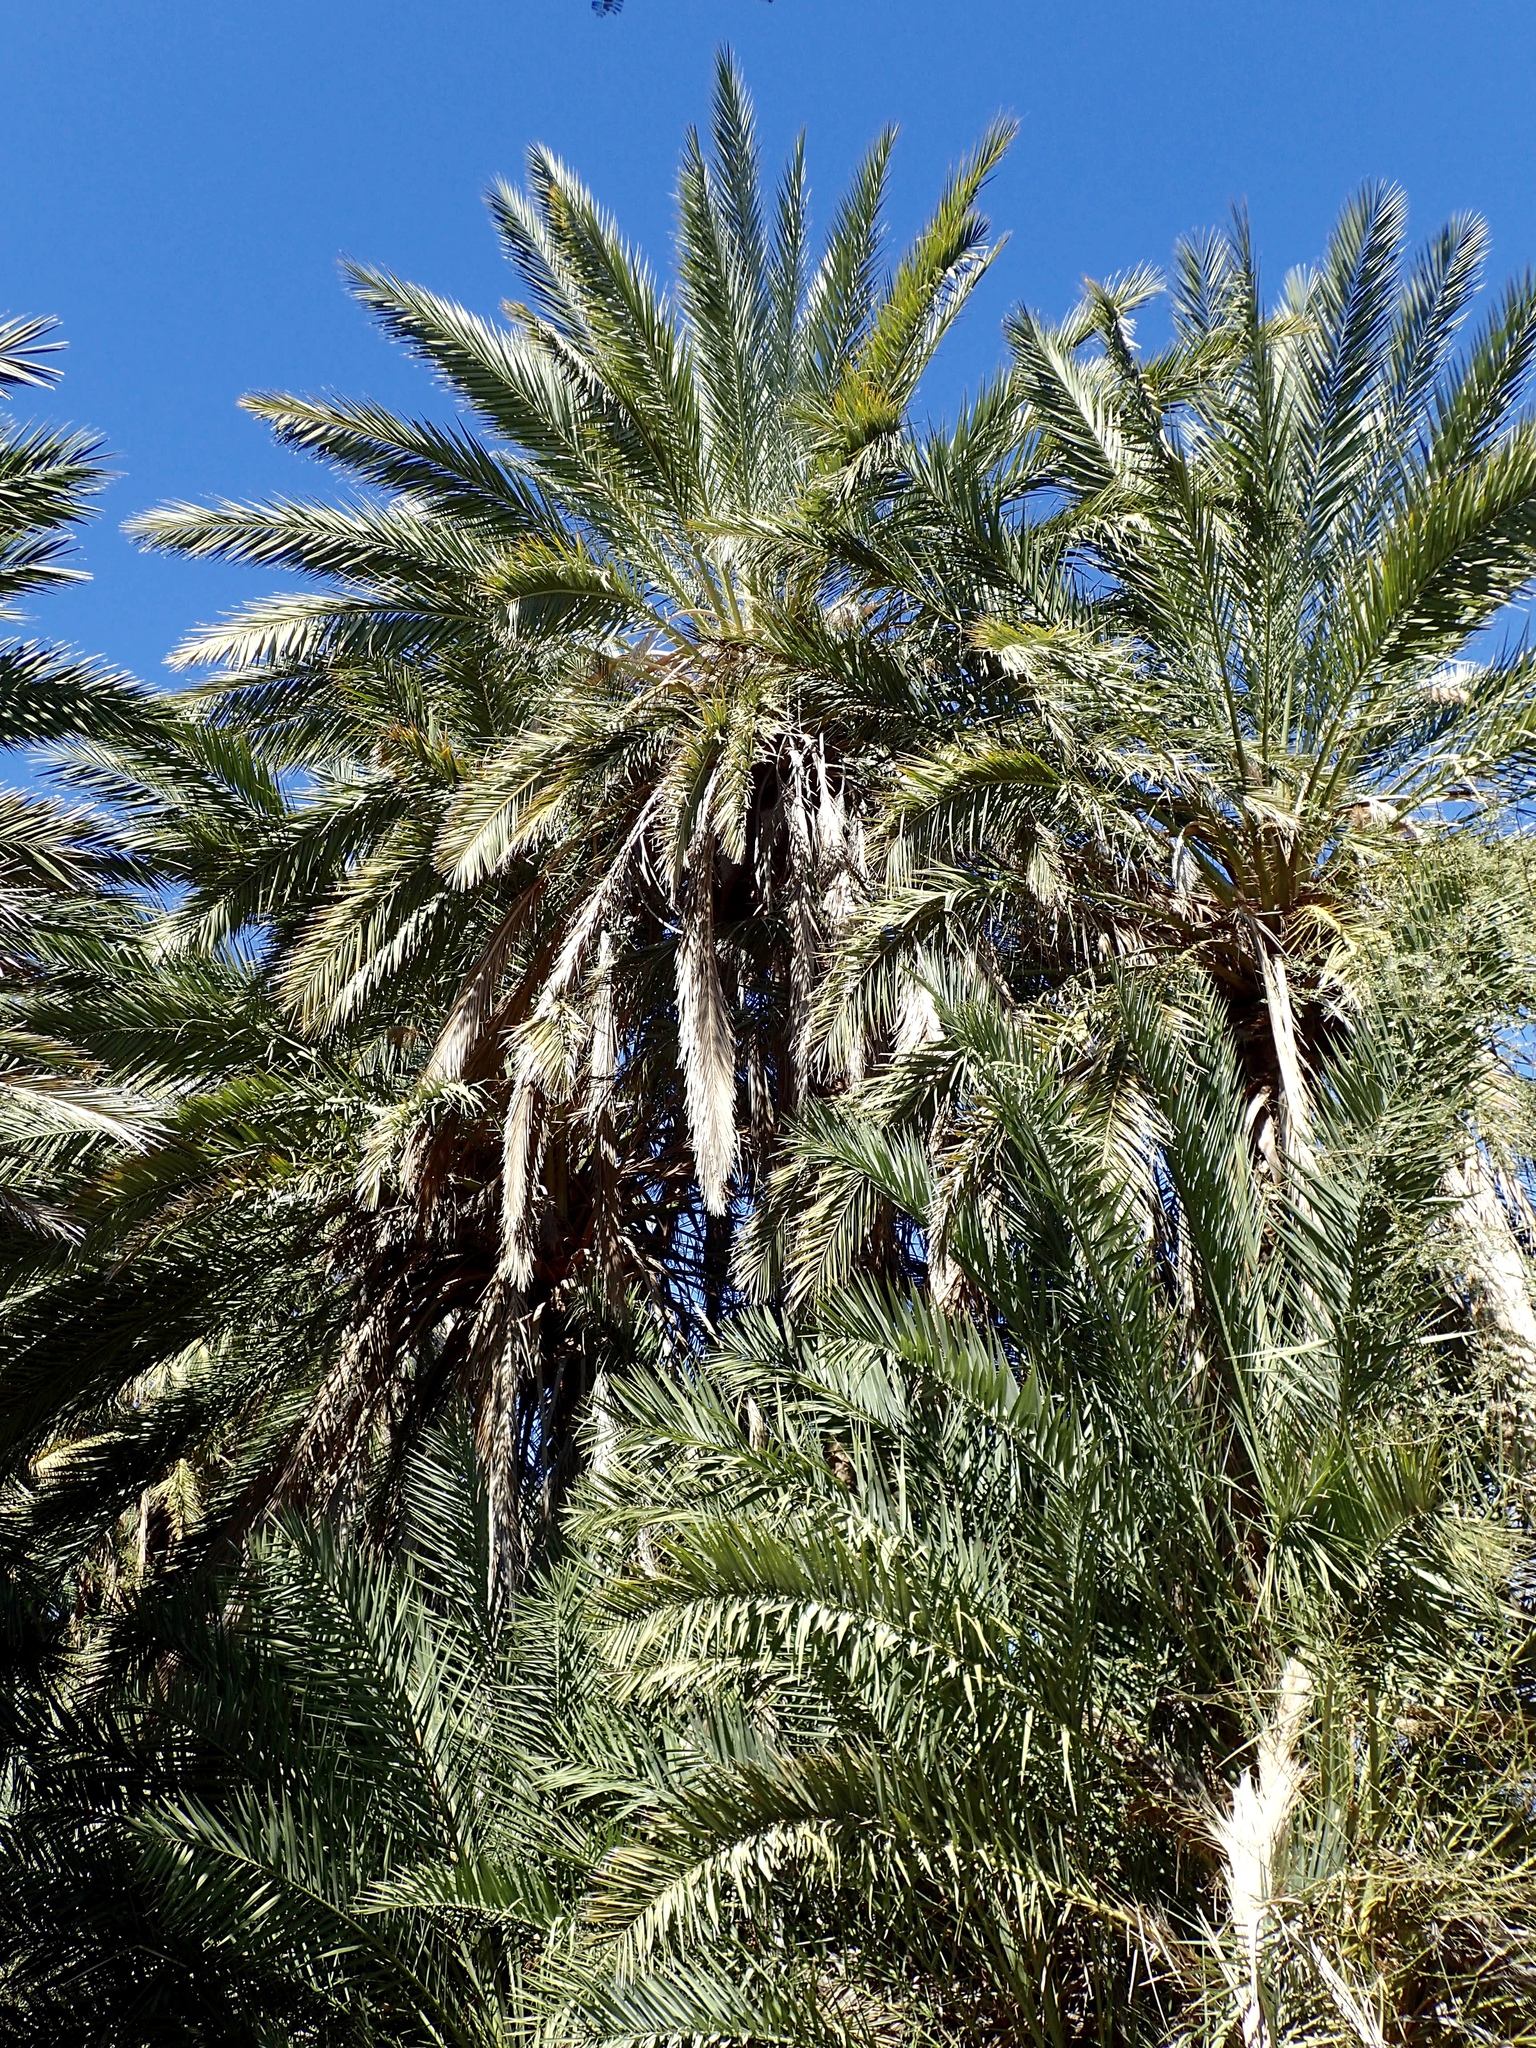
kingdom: Plantae
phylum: Tracheophyta
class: Liliopsida
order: Arecales
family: Arecaceae
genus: Phoenix
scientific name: Phoenix dactylifera
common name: Date palm
